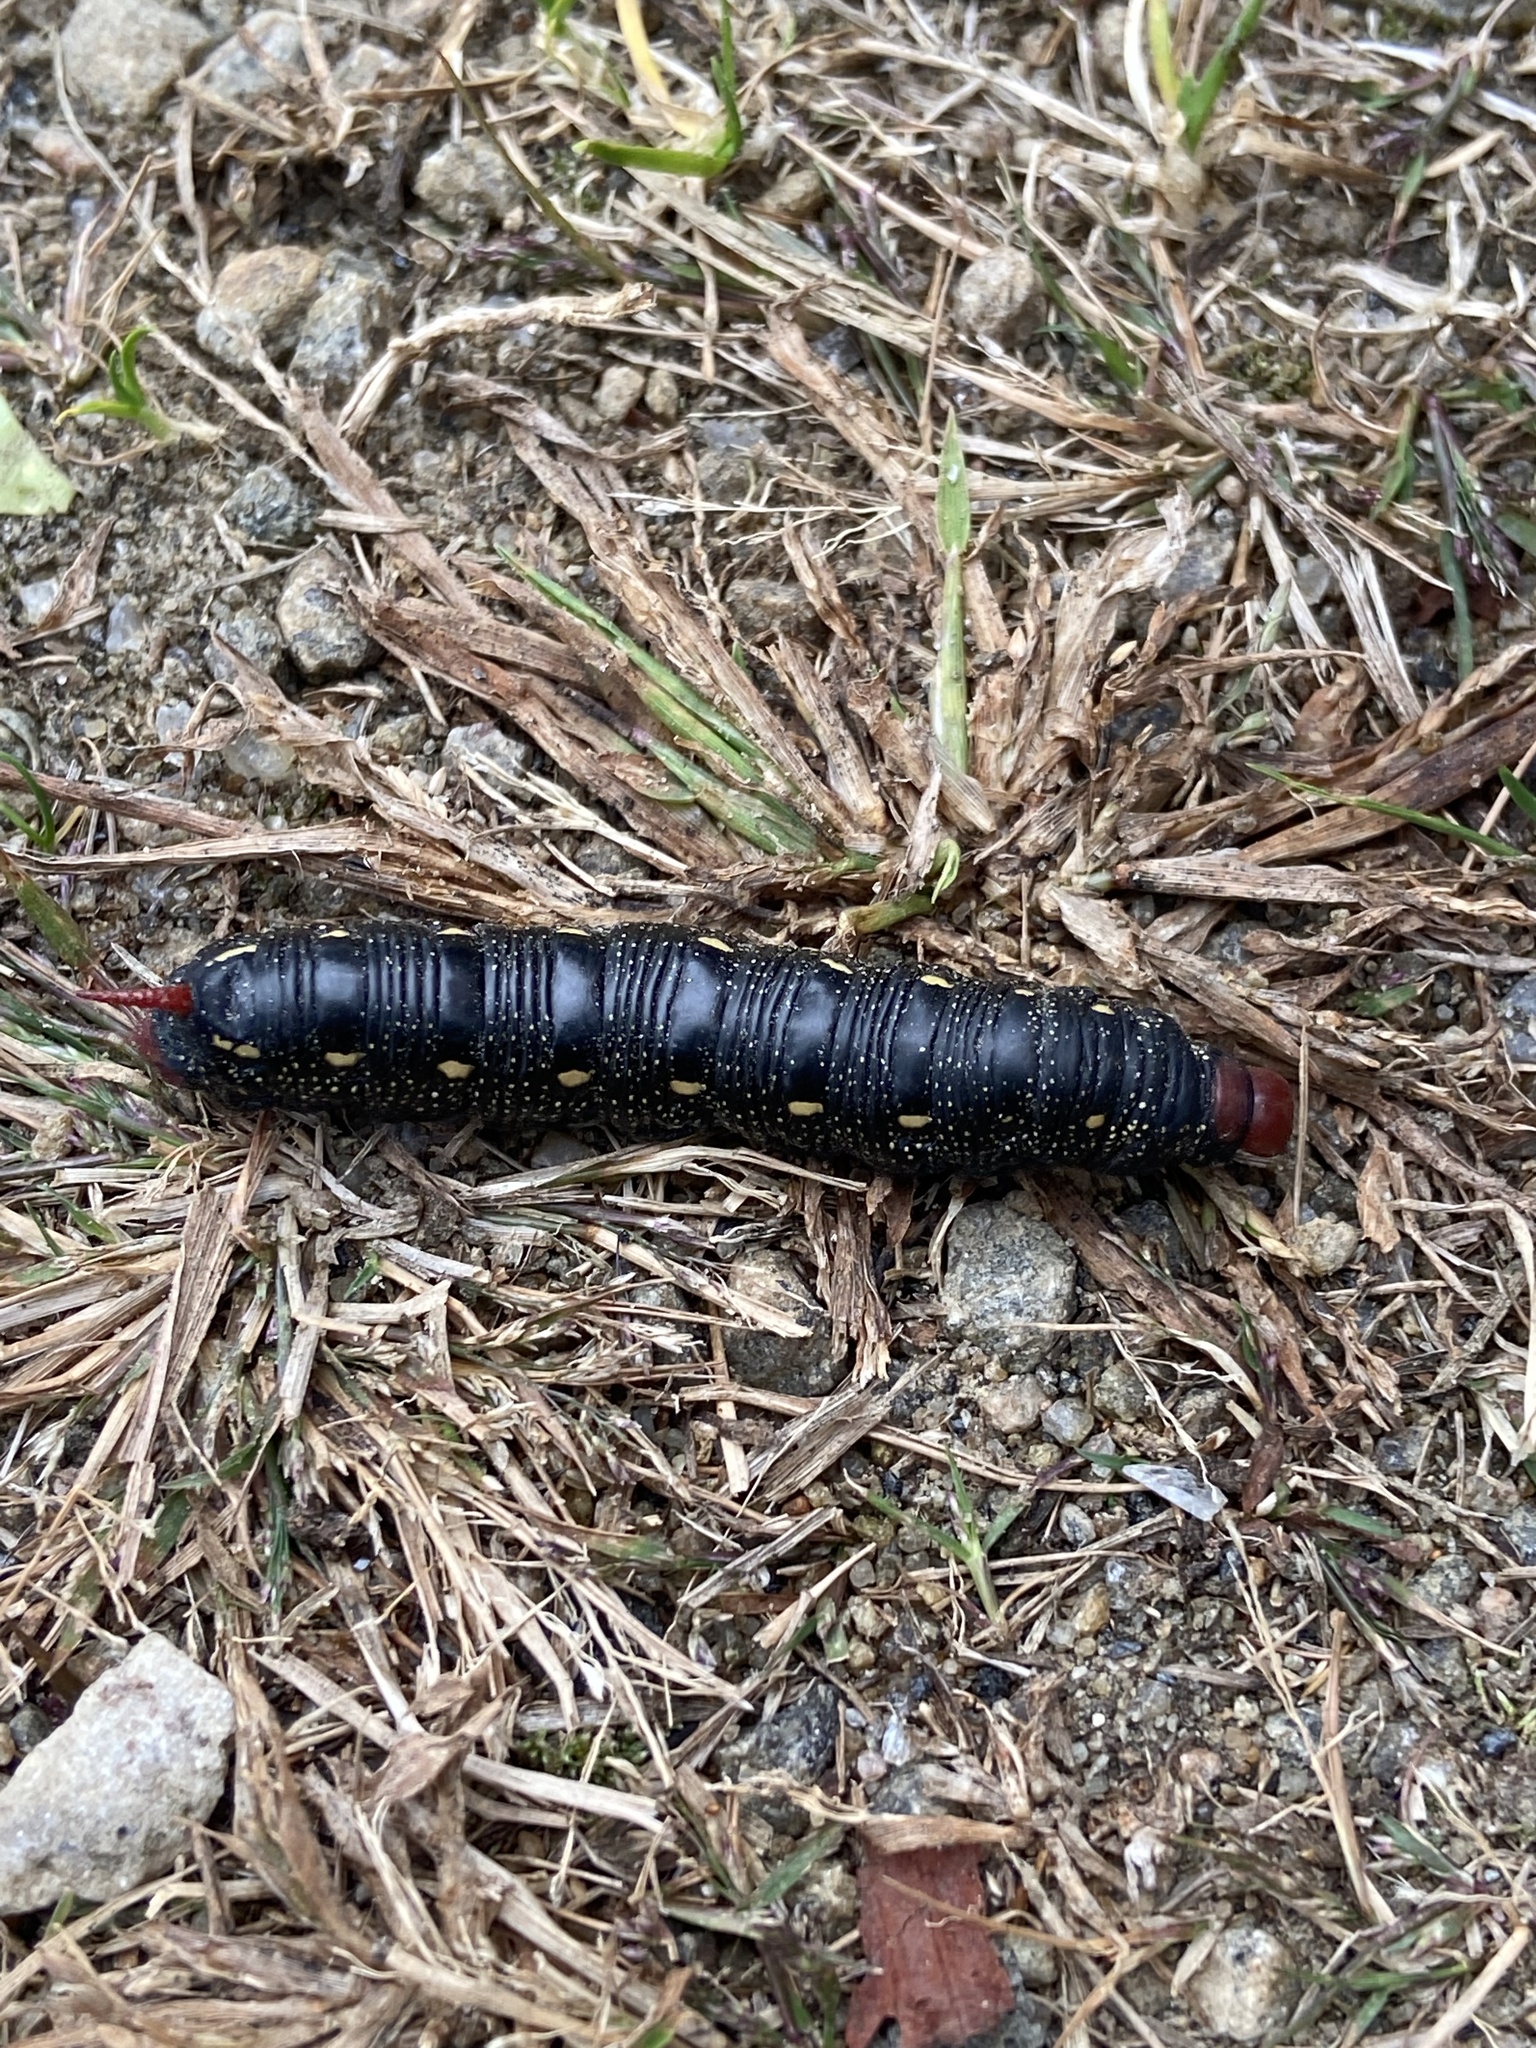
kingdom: Animalia
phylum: Arthropoda
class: Insecta
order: Lepidoptera
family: Sphingidae
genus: Hyles
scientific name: Hyles gallii
